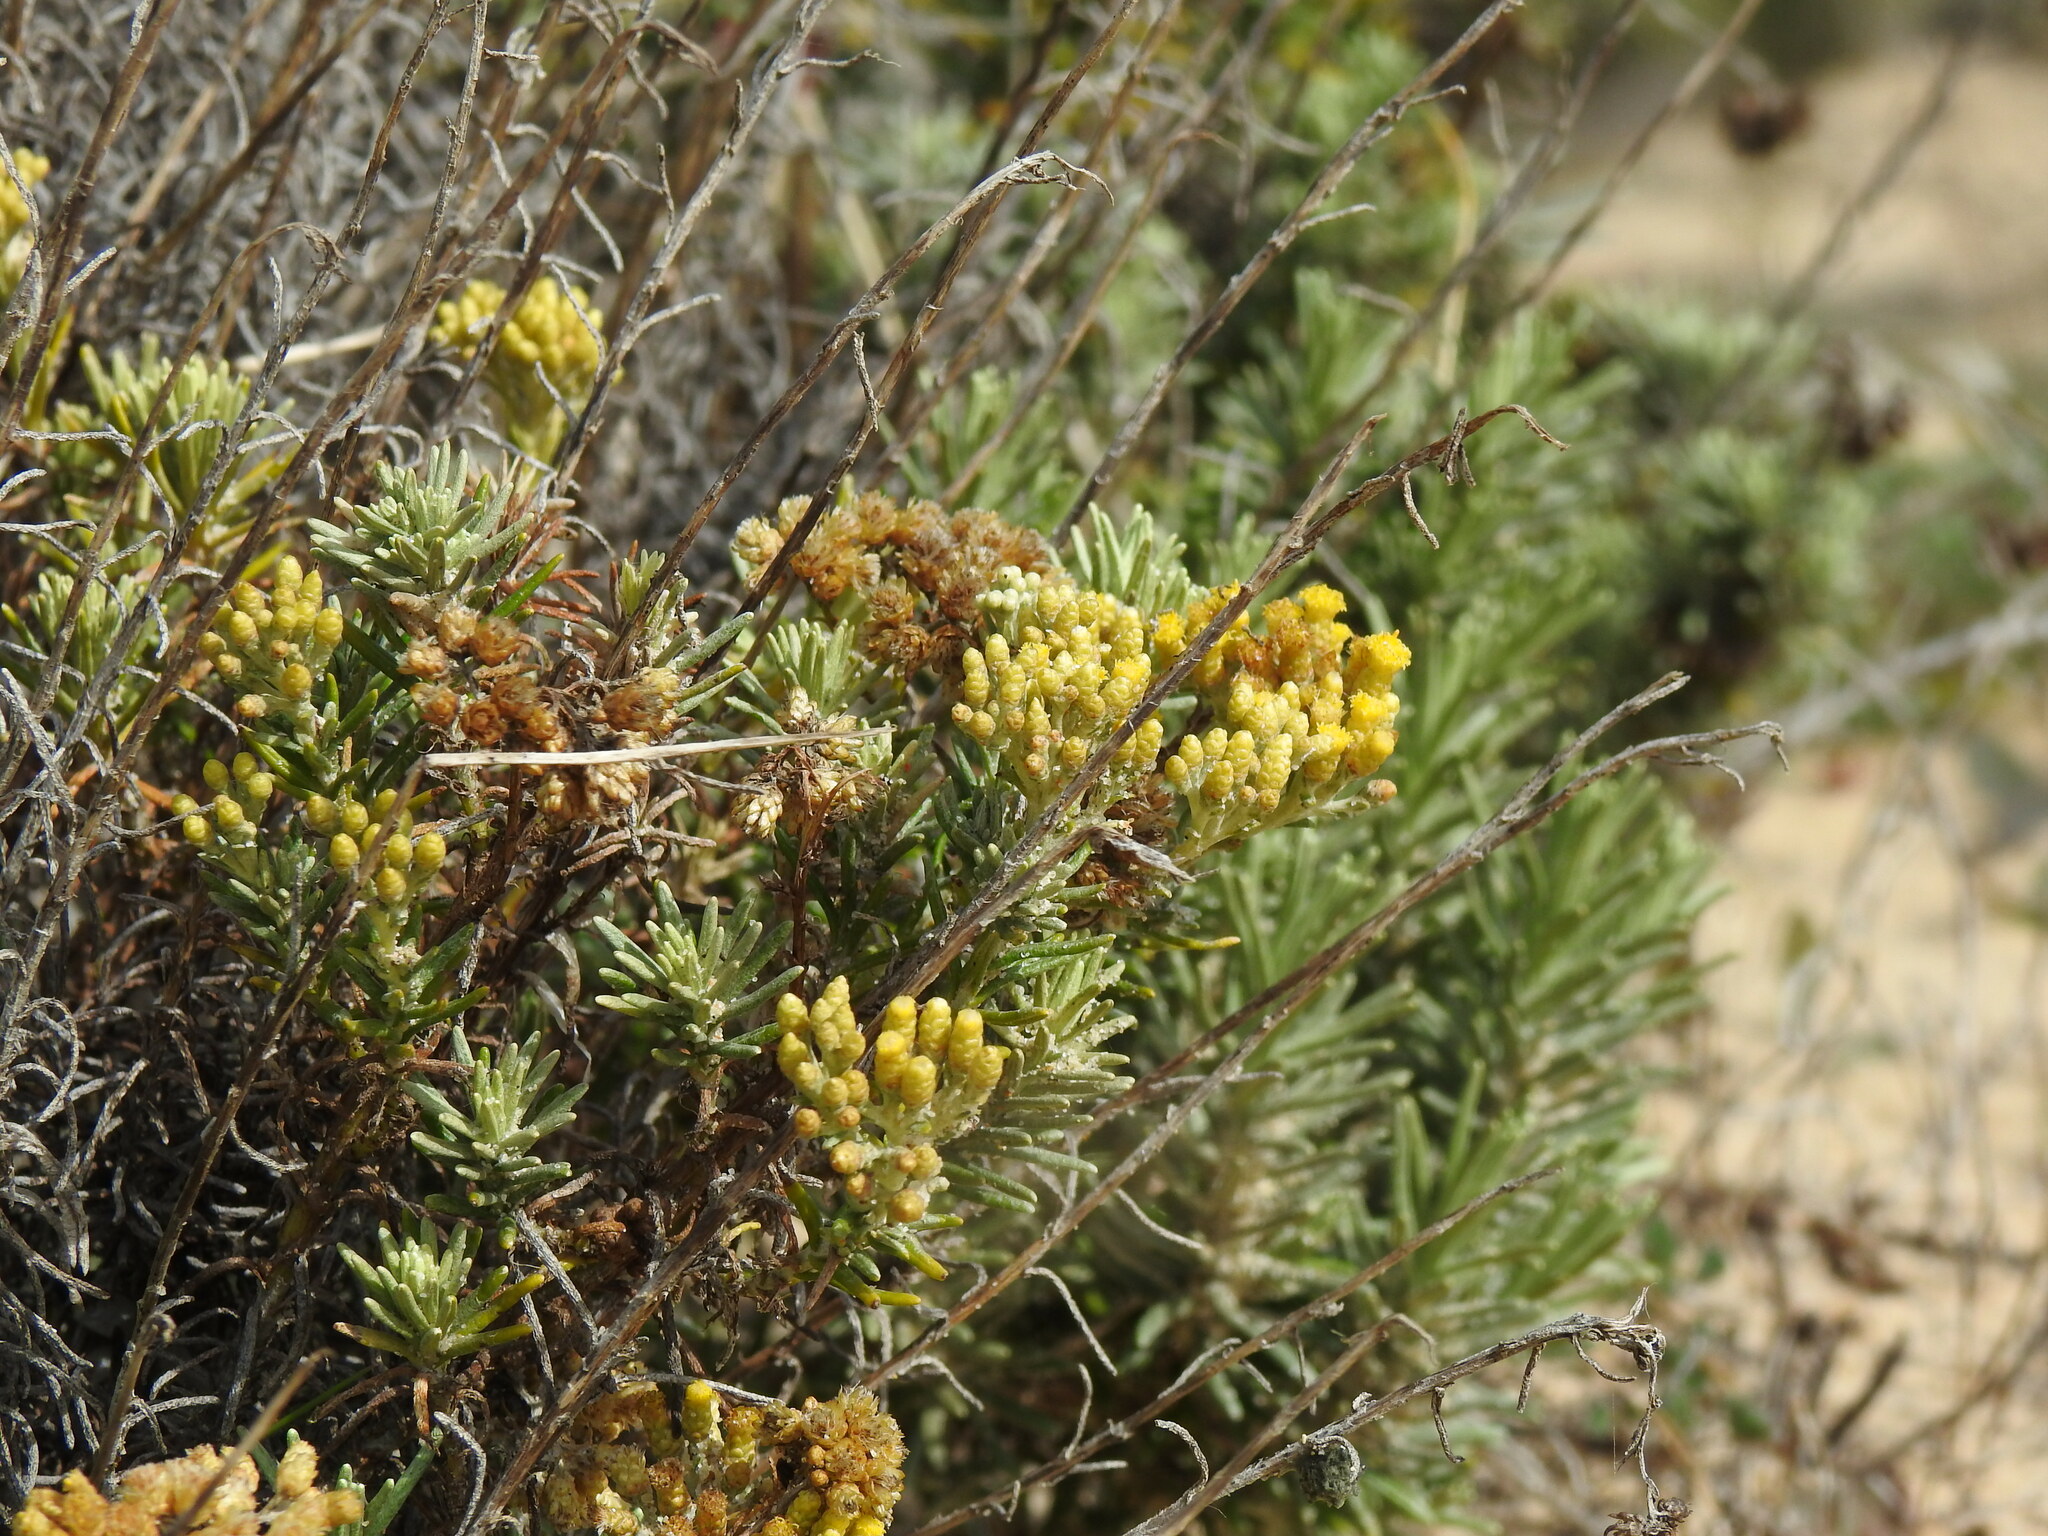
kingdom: Plantae
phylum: Tracheophyta
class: Magnoliopsida
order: Asterales
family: Asteraceae
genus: Helichrysum
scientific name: Helichrysum serotinum
